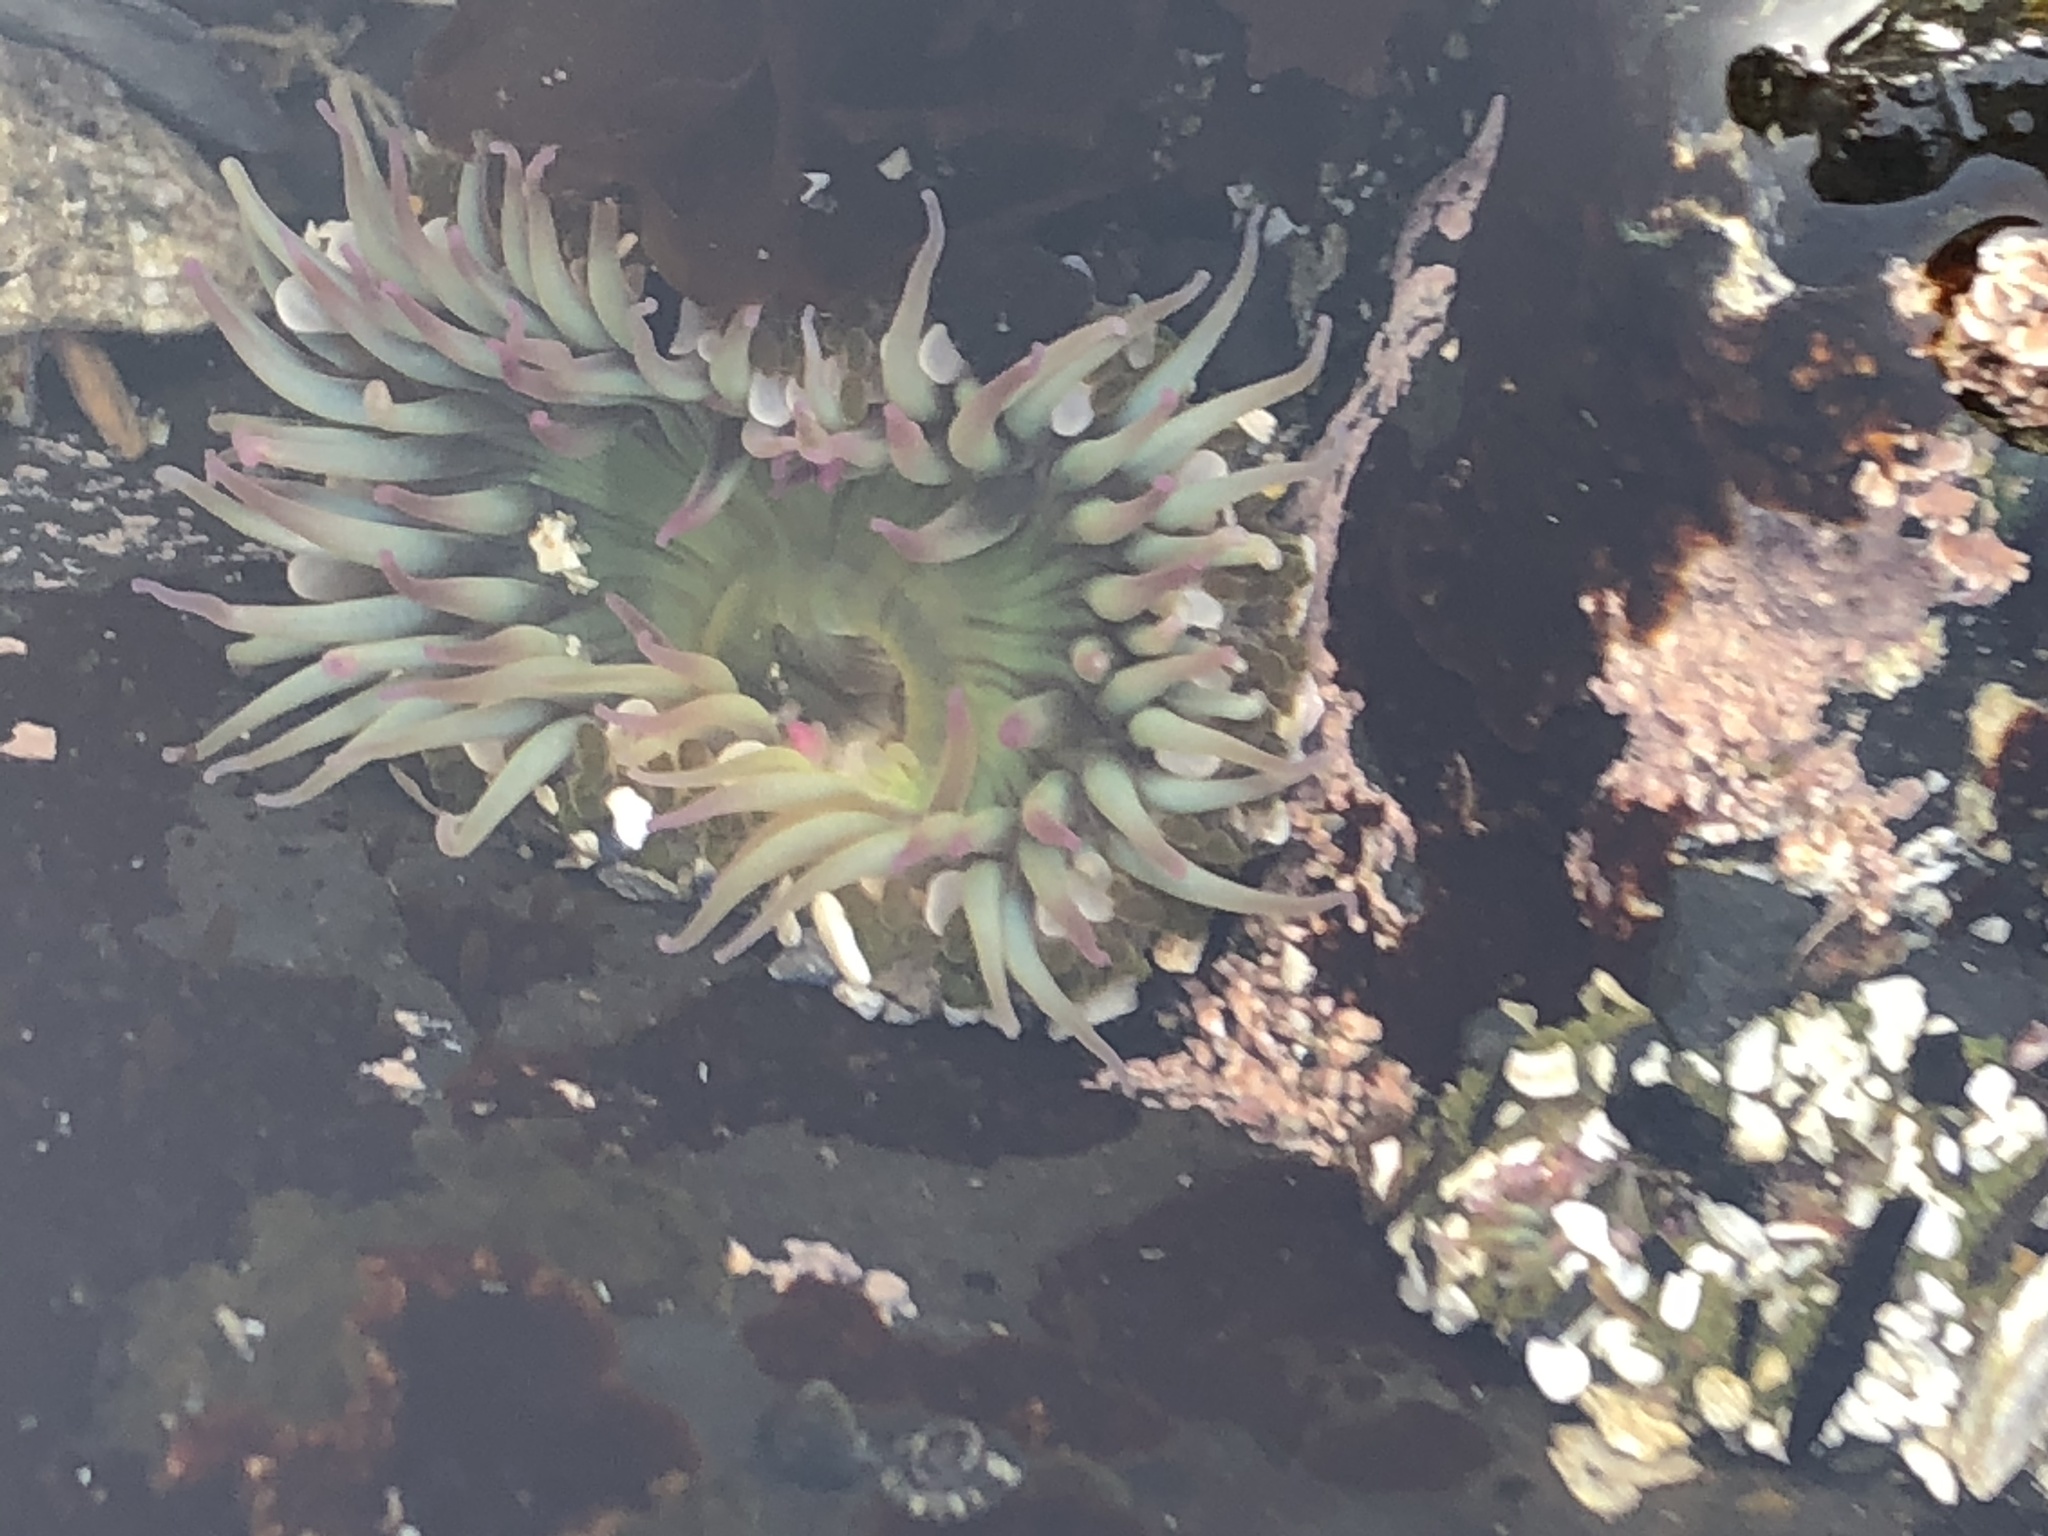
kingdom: Animalia
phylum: Cnidaria
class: Anthozoa
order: Actiniaria
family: Actiniidae
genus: Anthopleura
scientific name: Anthopleura elegantissima
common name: Clonal anemone
